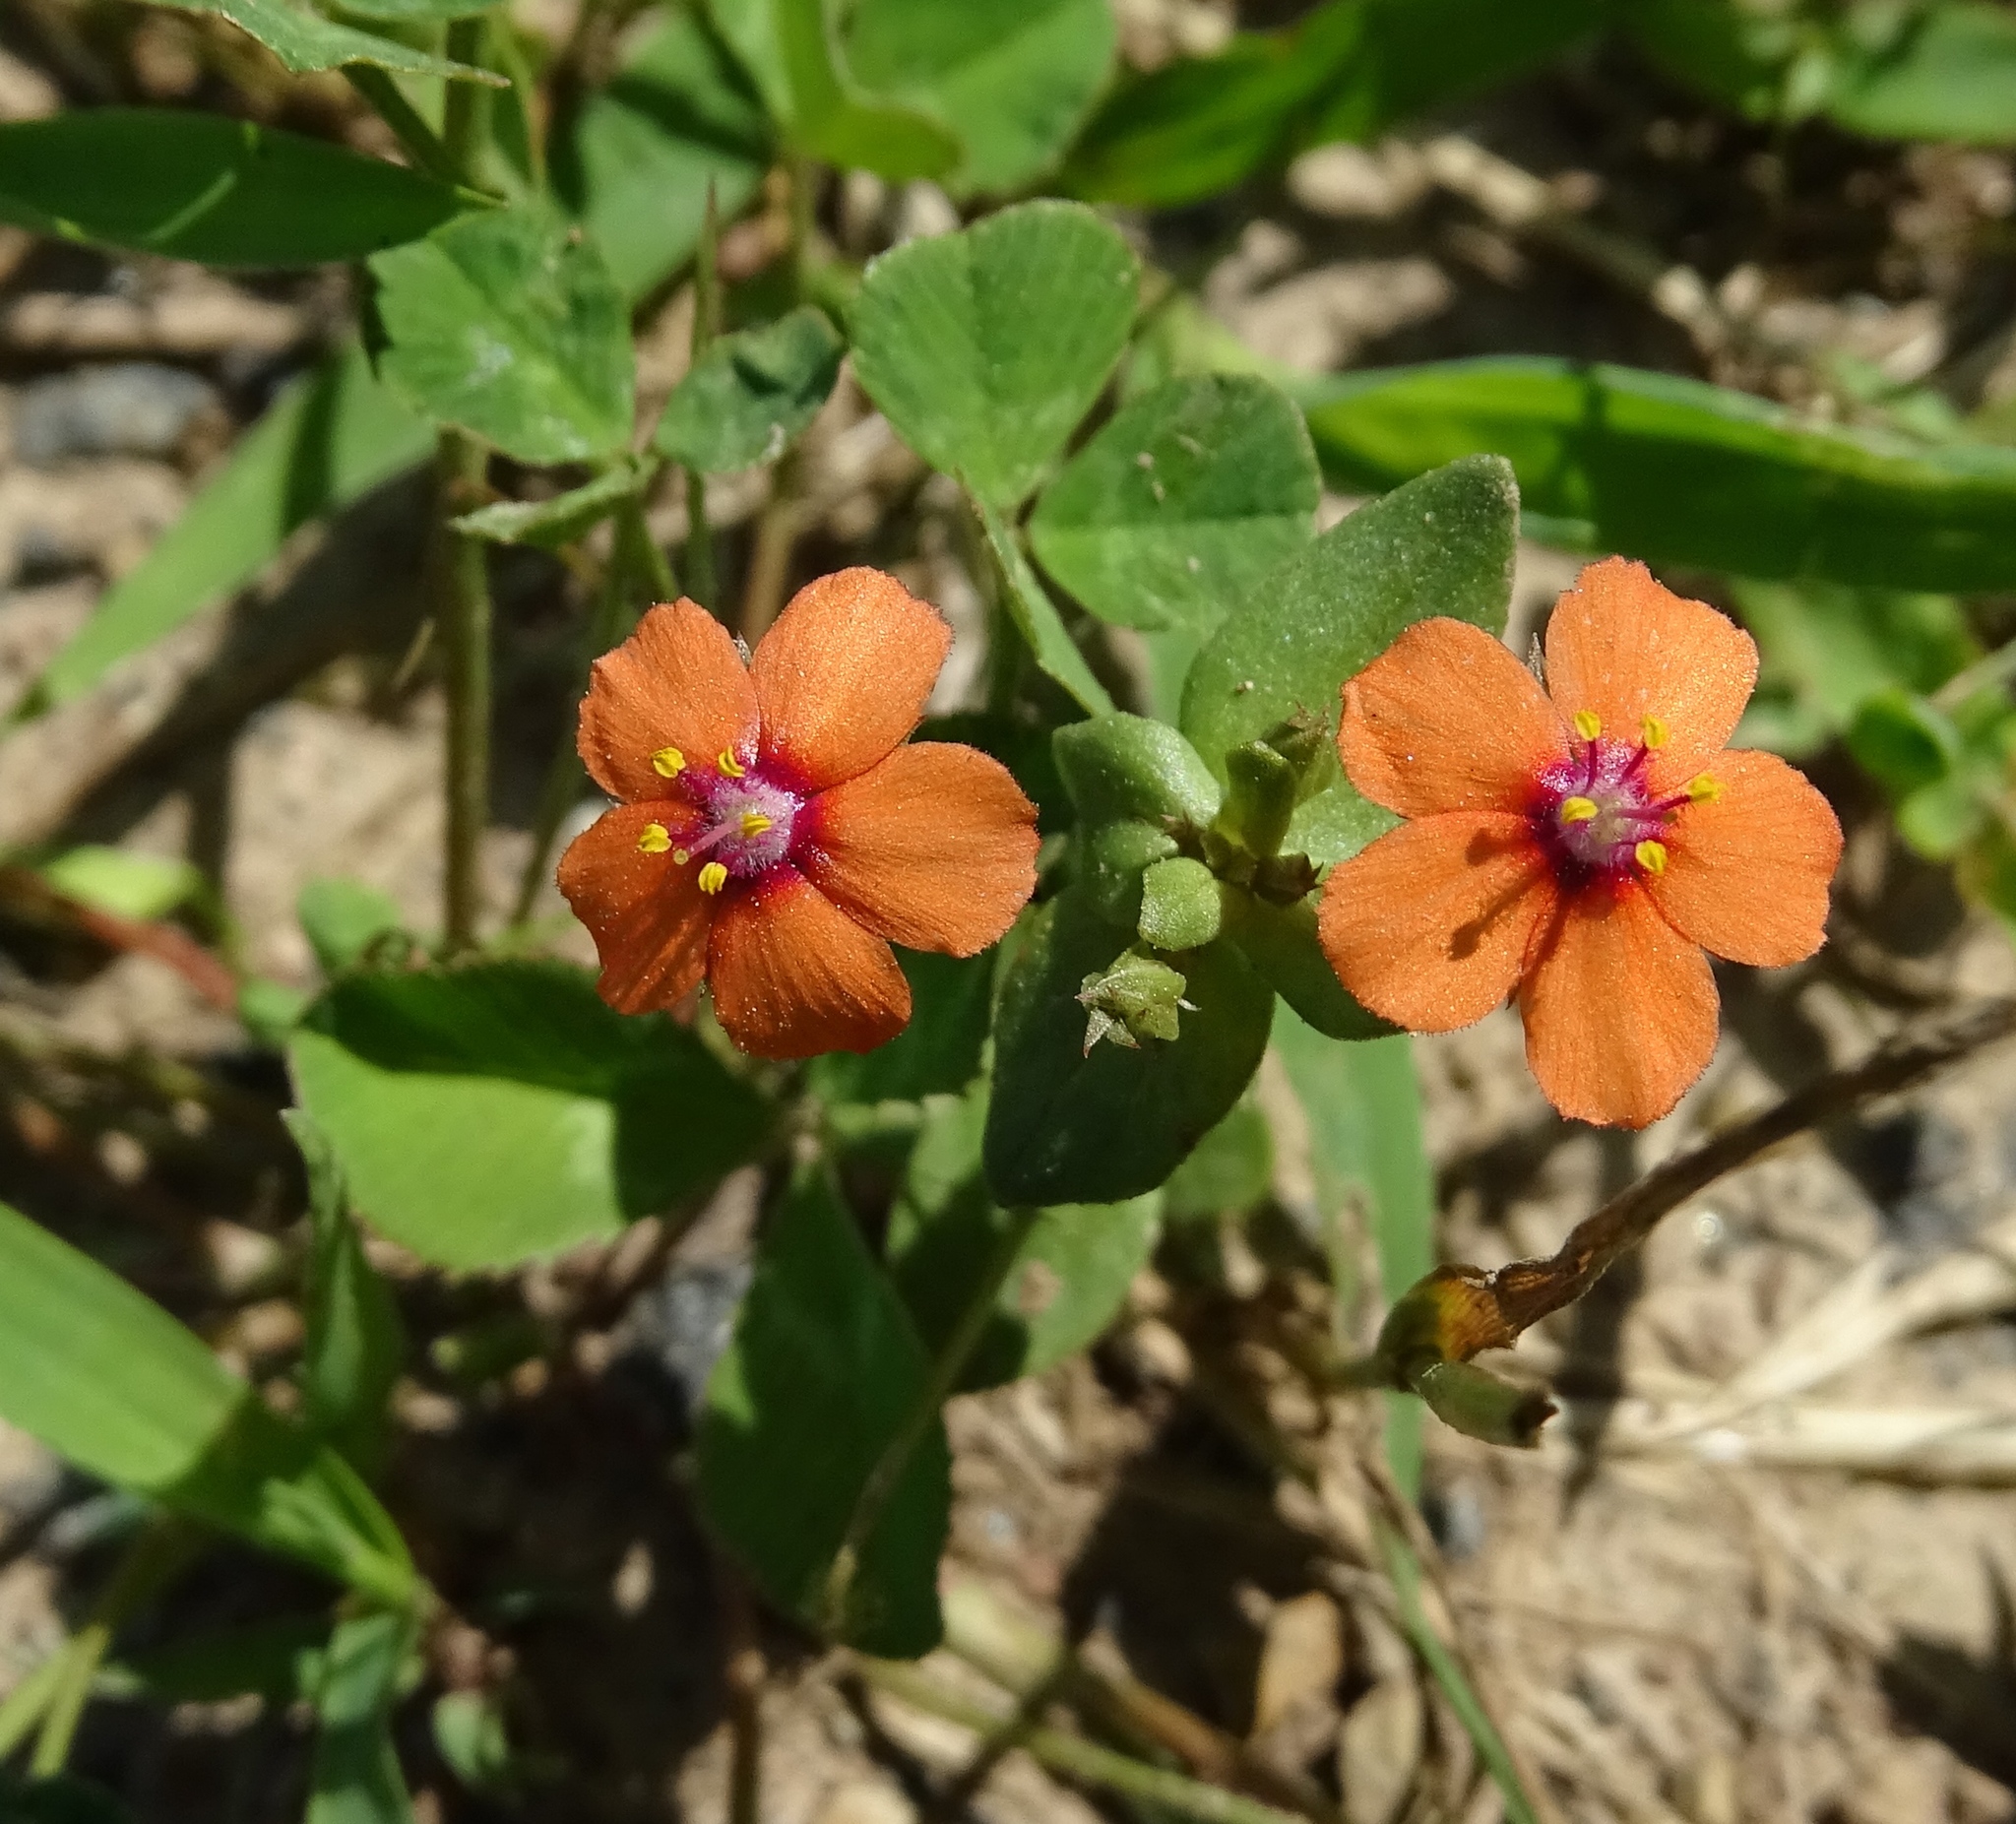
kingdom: Plantae
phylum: Tracheophyta
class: Magnoliopsida
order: Ericales
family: Primulaceae
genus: Lysimachia
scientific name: Lysimachia arvensis
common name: Scarlet pimpernel
